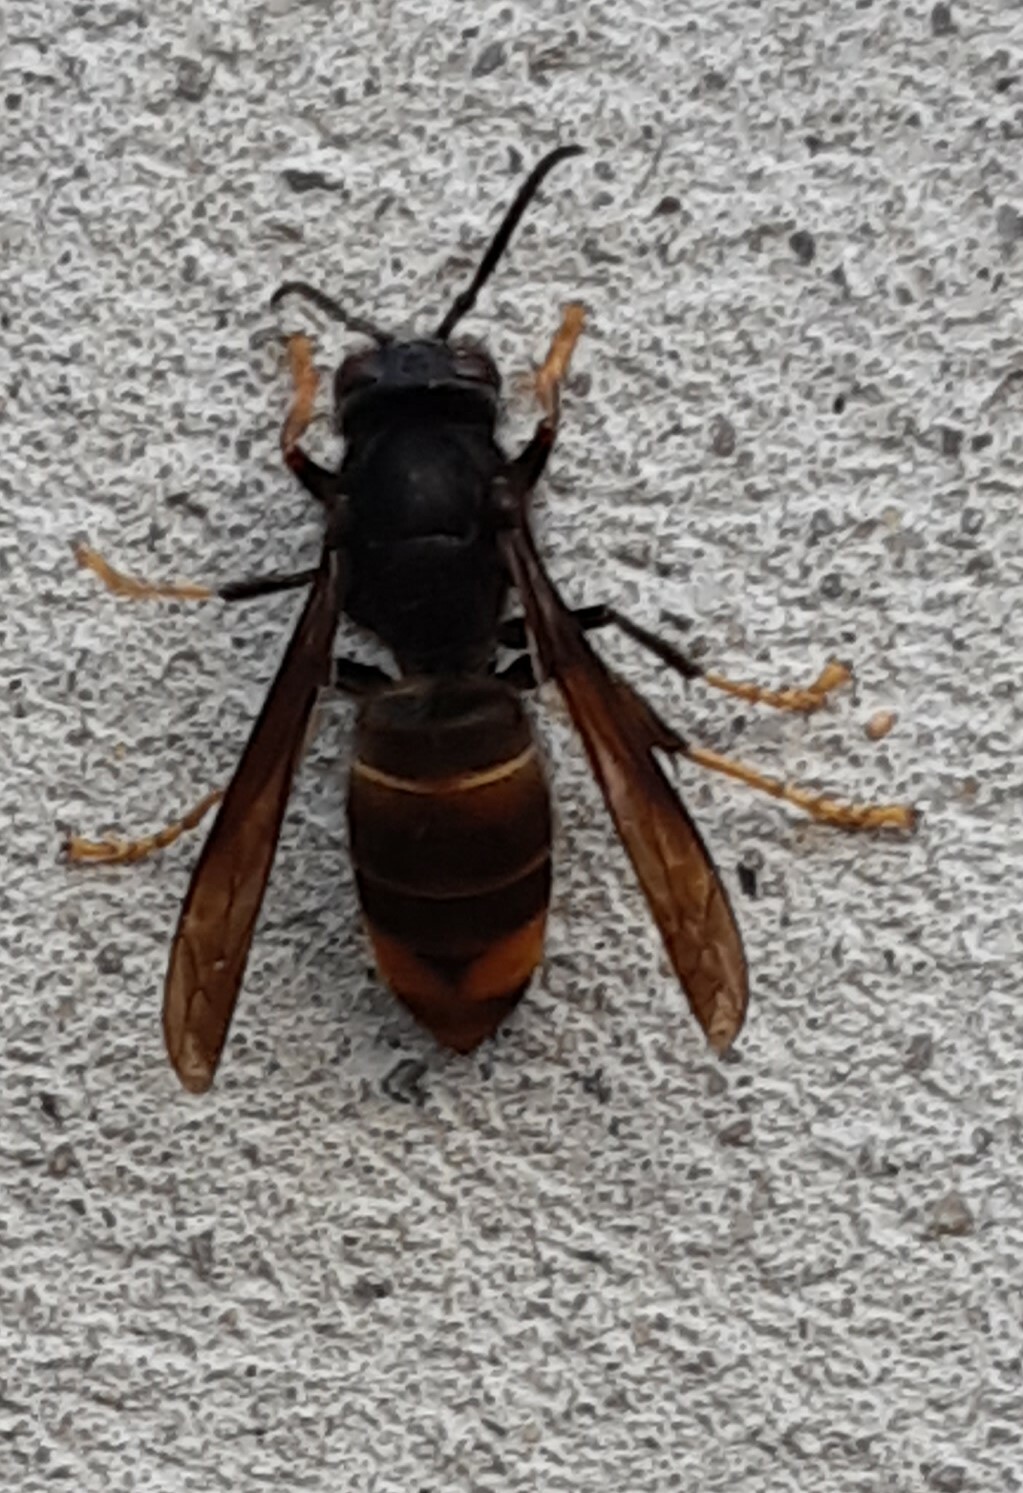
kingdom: Animalia
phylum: Arthropoda
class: Insecta
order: Hymenoptera
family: Vespidae
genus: Vespa
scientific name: Vespa velutina
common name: Asian hornet
